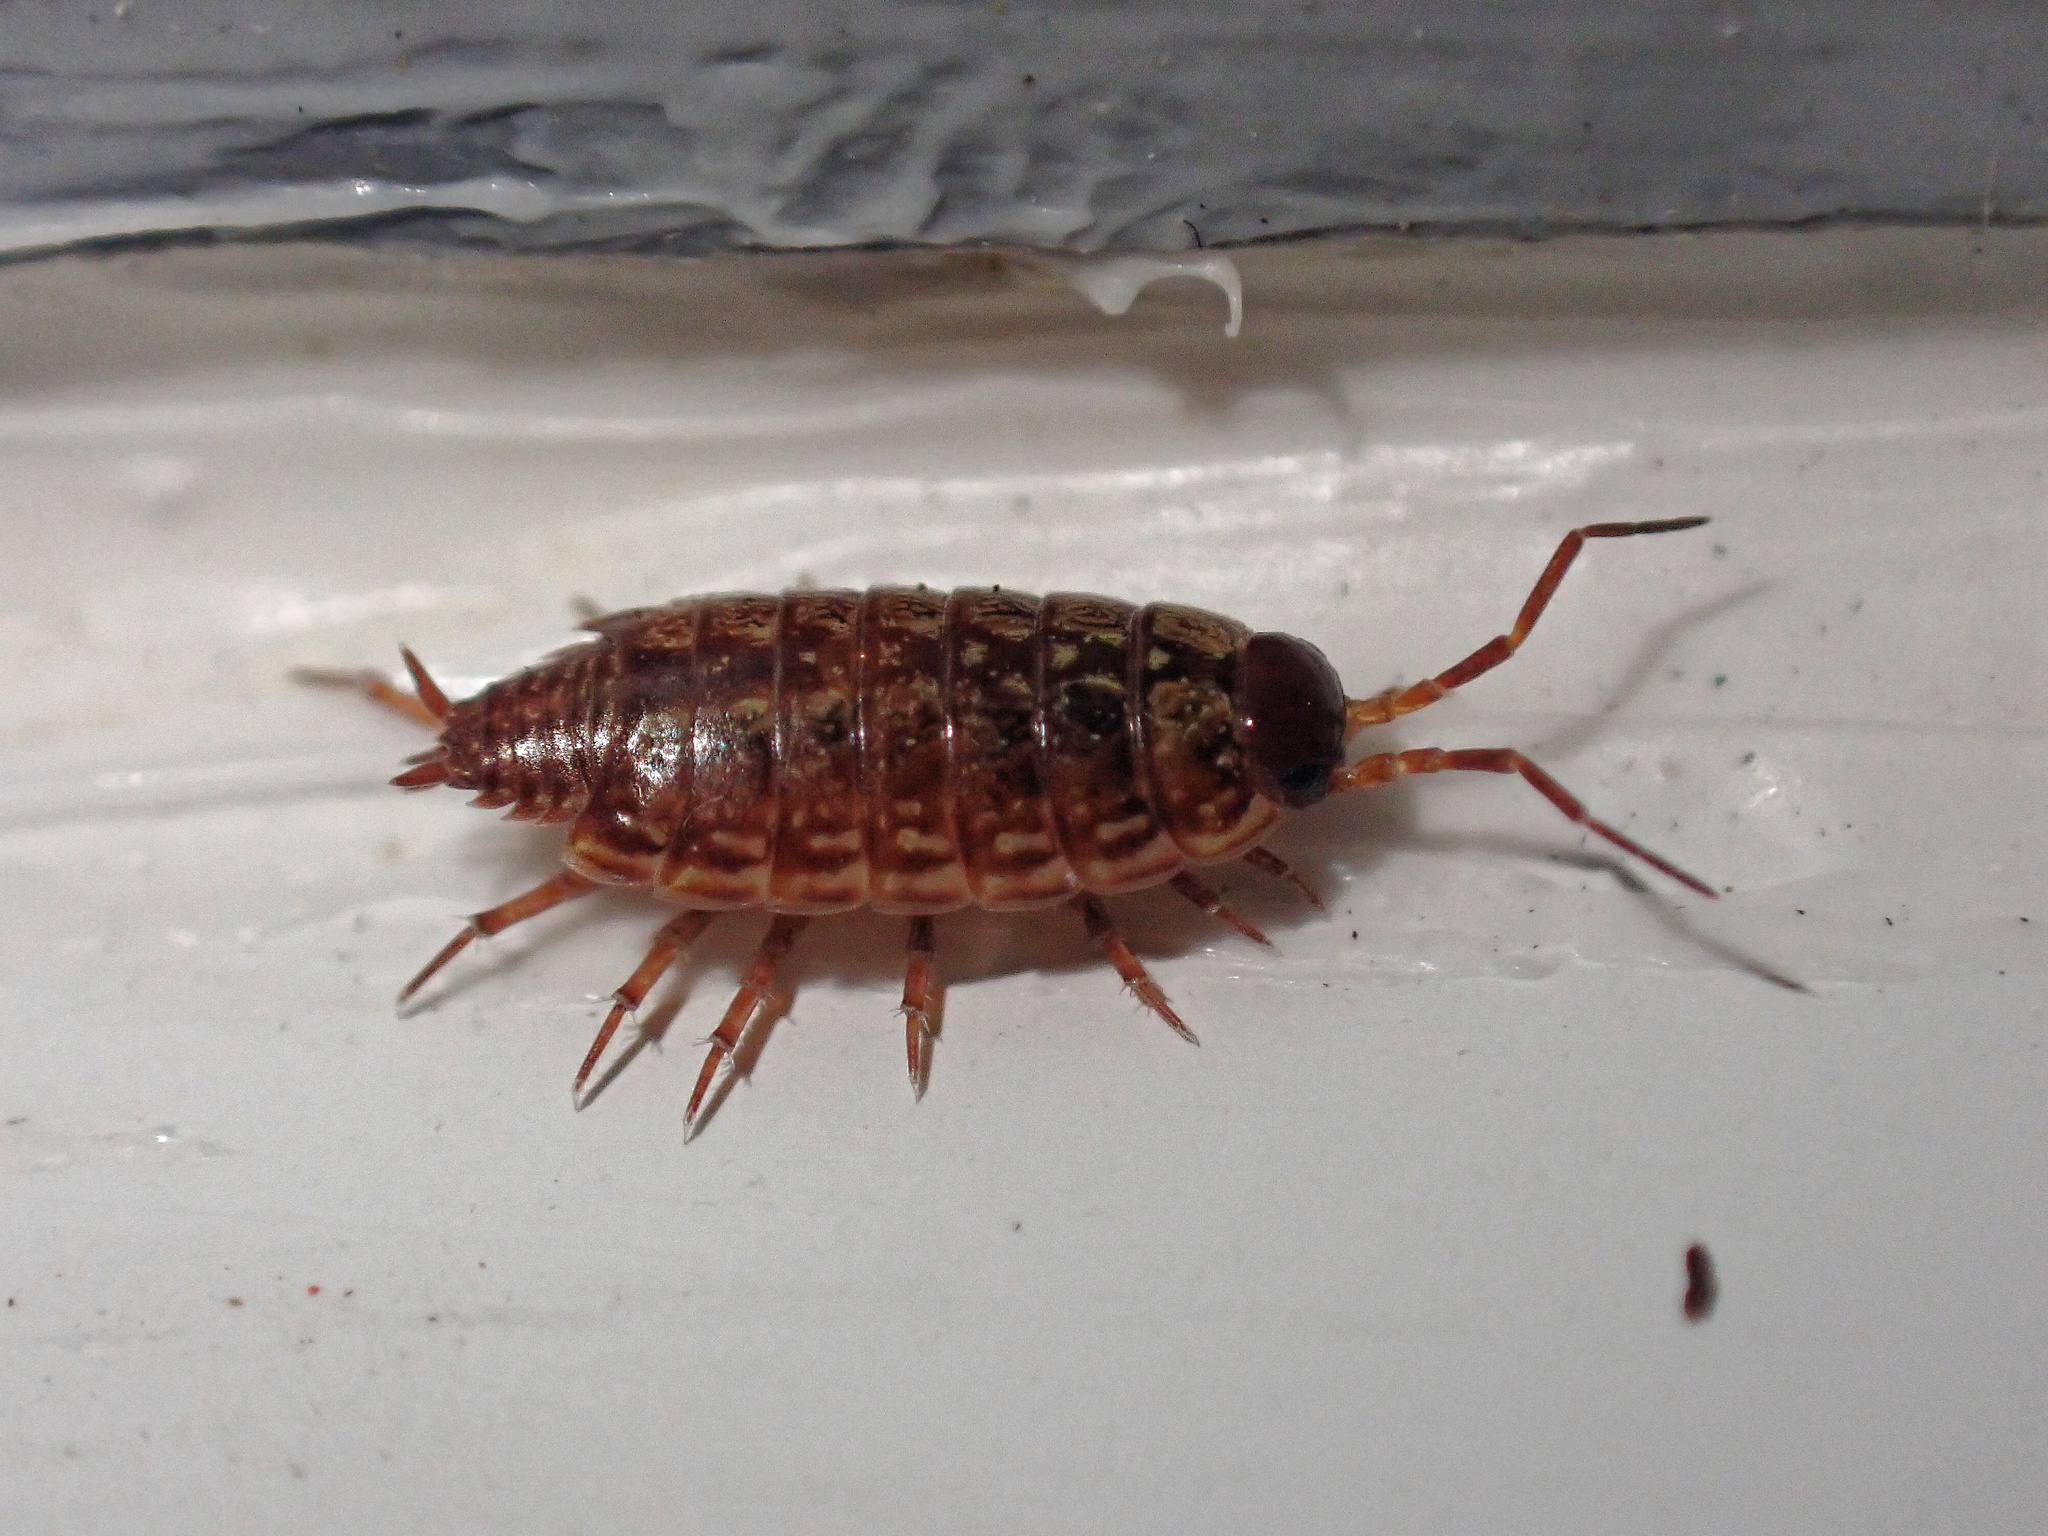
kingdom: Animalia
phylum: Arthropoda
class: Malacostraca
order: Isopoda
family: Philosciidae
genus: Philoscia
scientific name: Philoscia muscorum
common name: Common striped woodlouse
